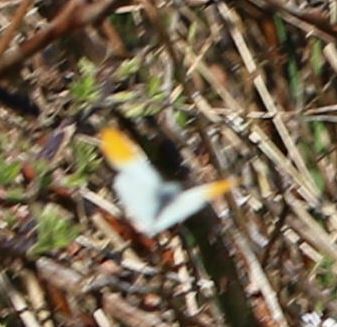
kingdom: Animalia
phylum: Arthropoda
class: Insecta
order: Lepidoptera
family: Pieridae
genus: Anthocharis
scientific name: Anthocharis cardamines
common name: Orange-tip
